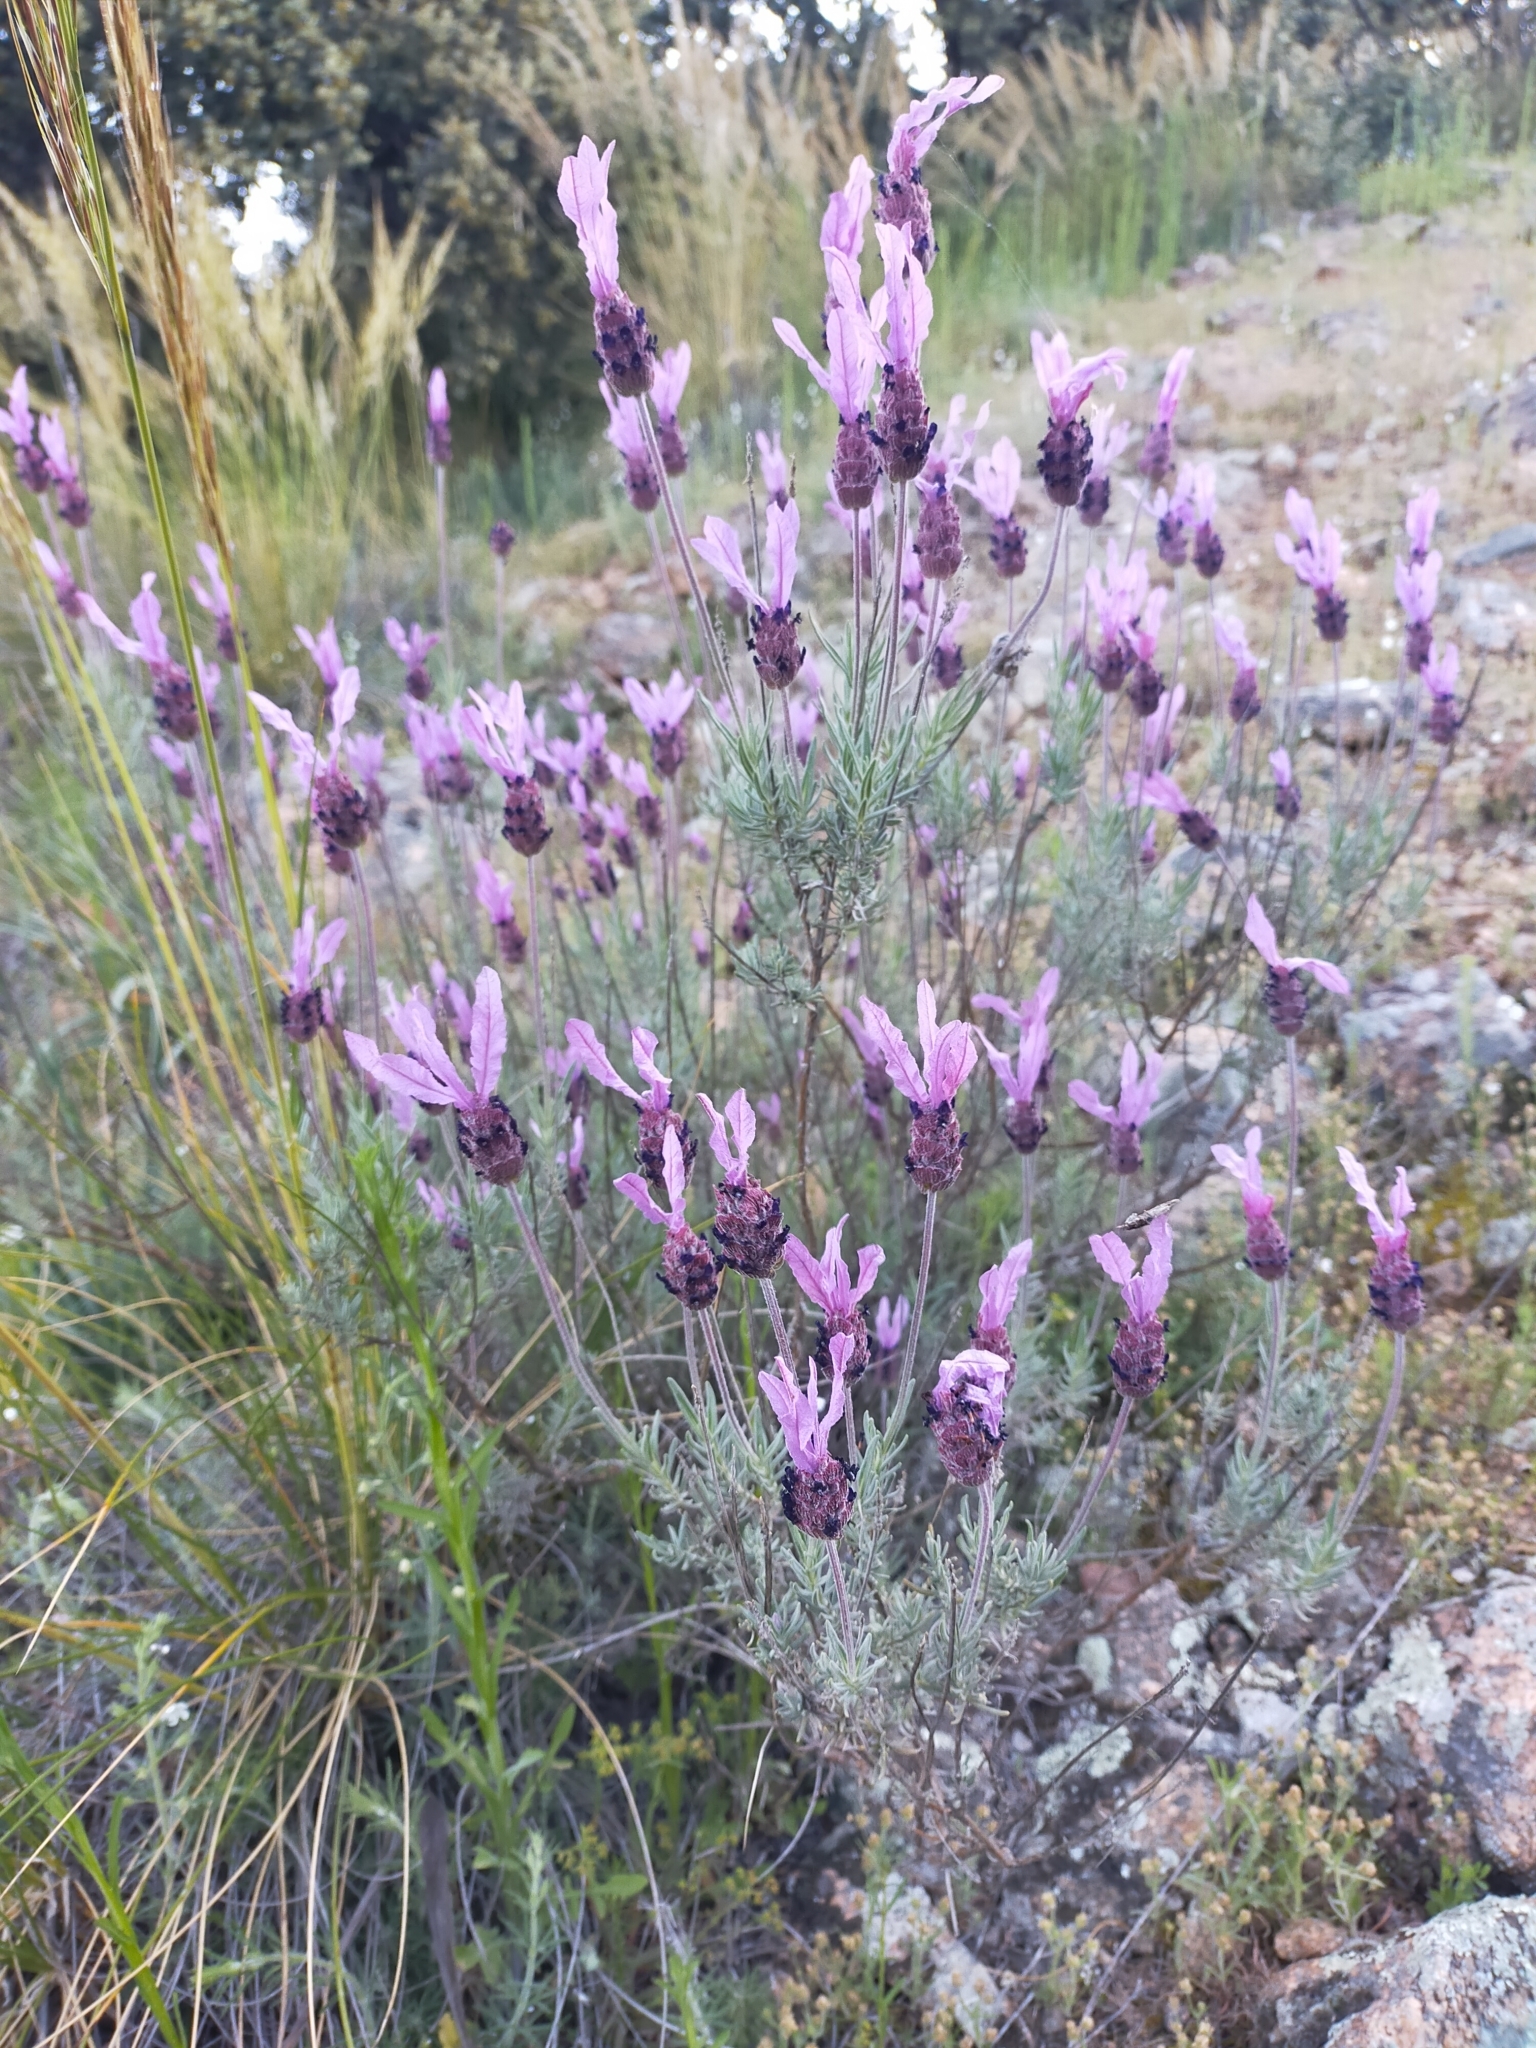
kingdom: Plantae
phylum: Tracheophyta
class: Magnoliopsida
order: Lamiales
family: Lamiaceae
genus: Lavandula
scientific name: Lavandula pedunculata
